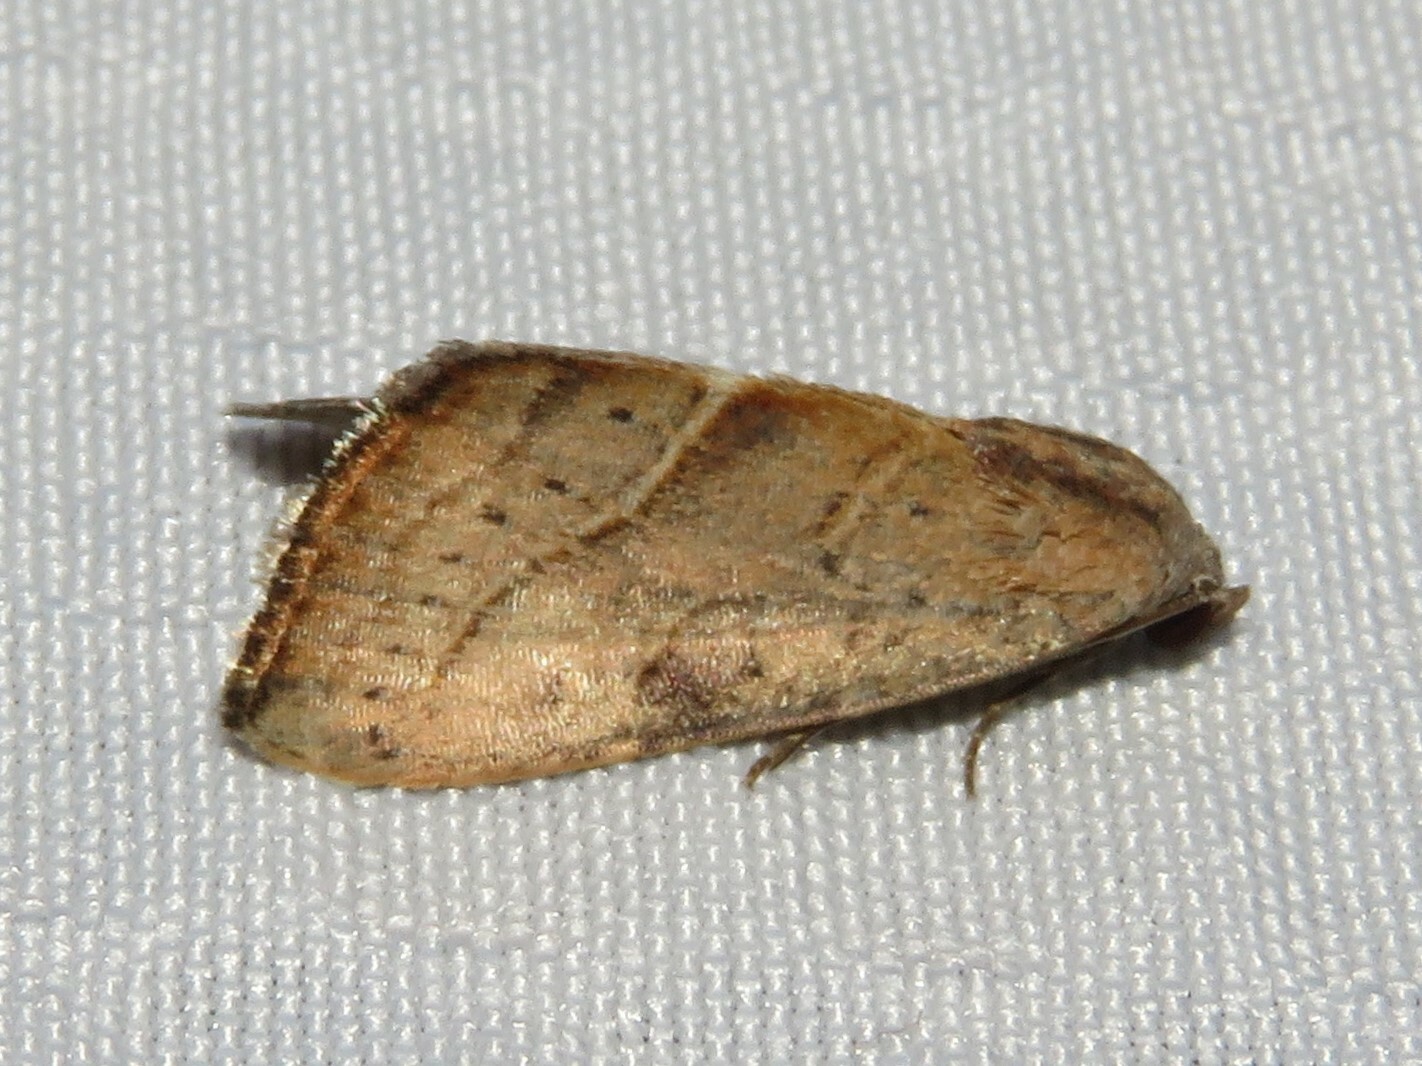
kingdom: Animalia
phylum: Arthropoda
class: Insecta
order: Lepidoptera
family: Noctuidae
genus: Galgula
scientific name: Galgula partita
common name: Wedgeling
